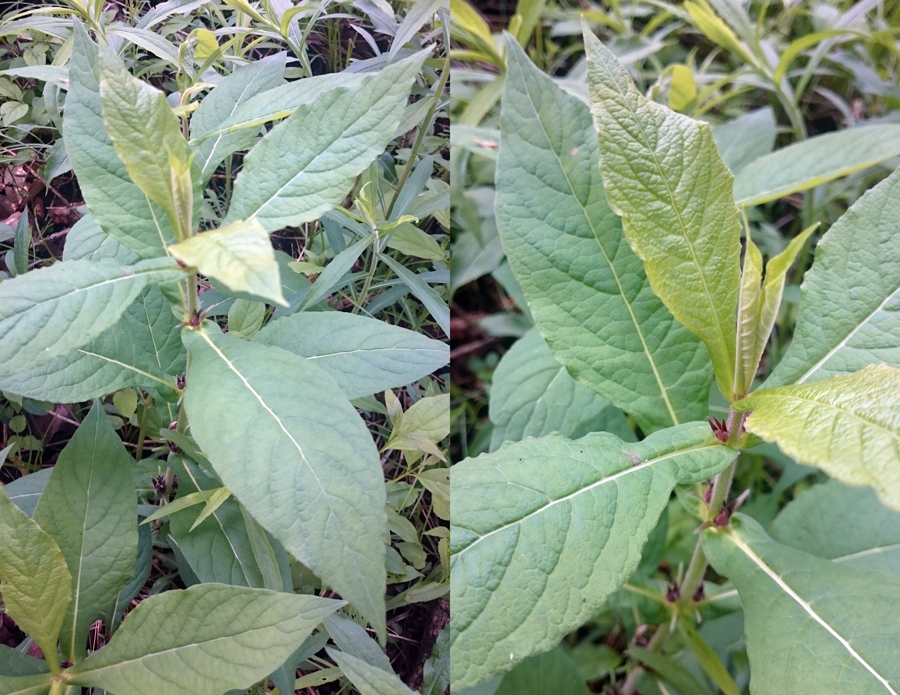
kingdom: Plantae
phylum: Tracheophyta
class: Magnoliopsida
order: Dipsacales
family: Caprifoliaceae
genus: Triosteum
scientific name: Triosteum aurantiacum
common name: Coffee tinker's-weed
